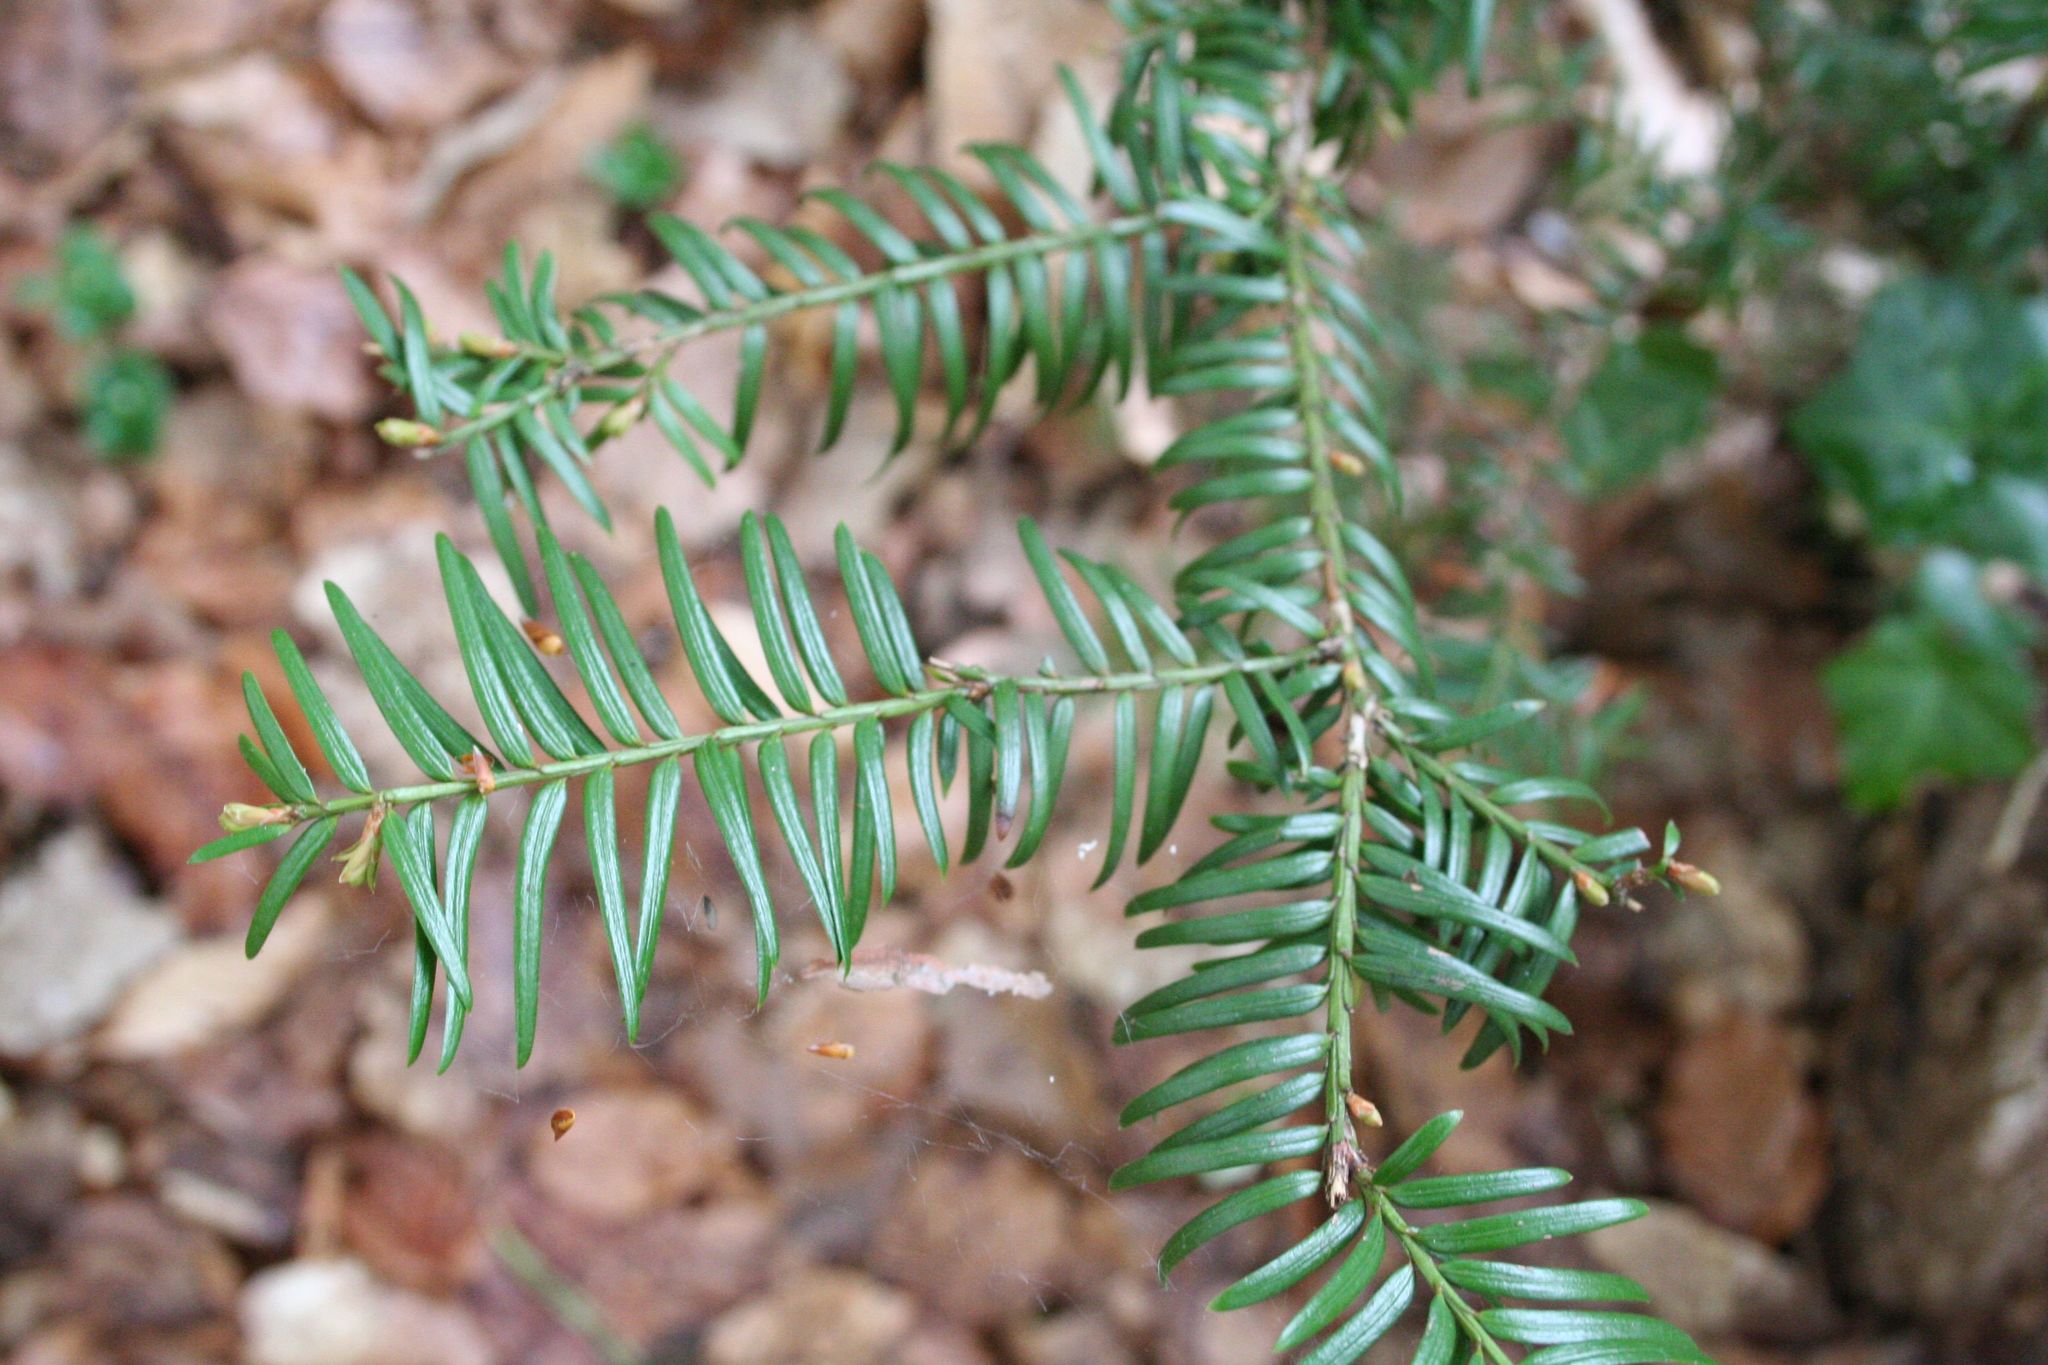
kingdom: Plantae
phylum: Tracheophyta
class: Pinopsida
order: Pinales
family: Taxaceae
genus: Taxus
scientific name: Taxus baccata
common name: Yew
